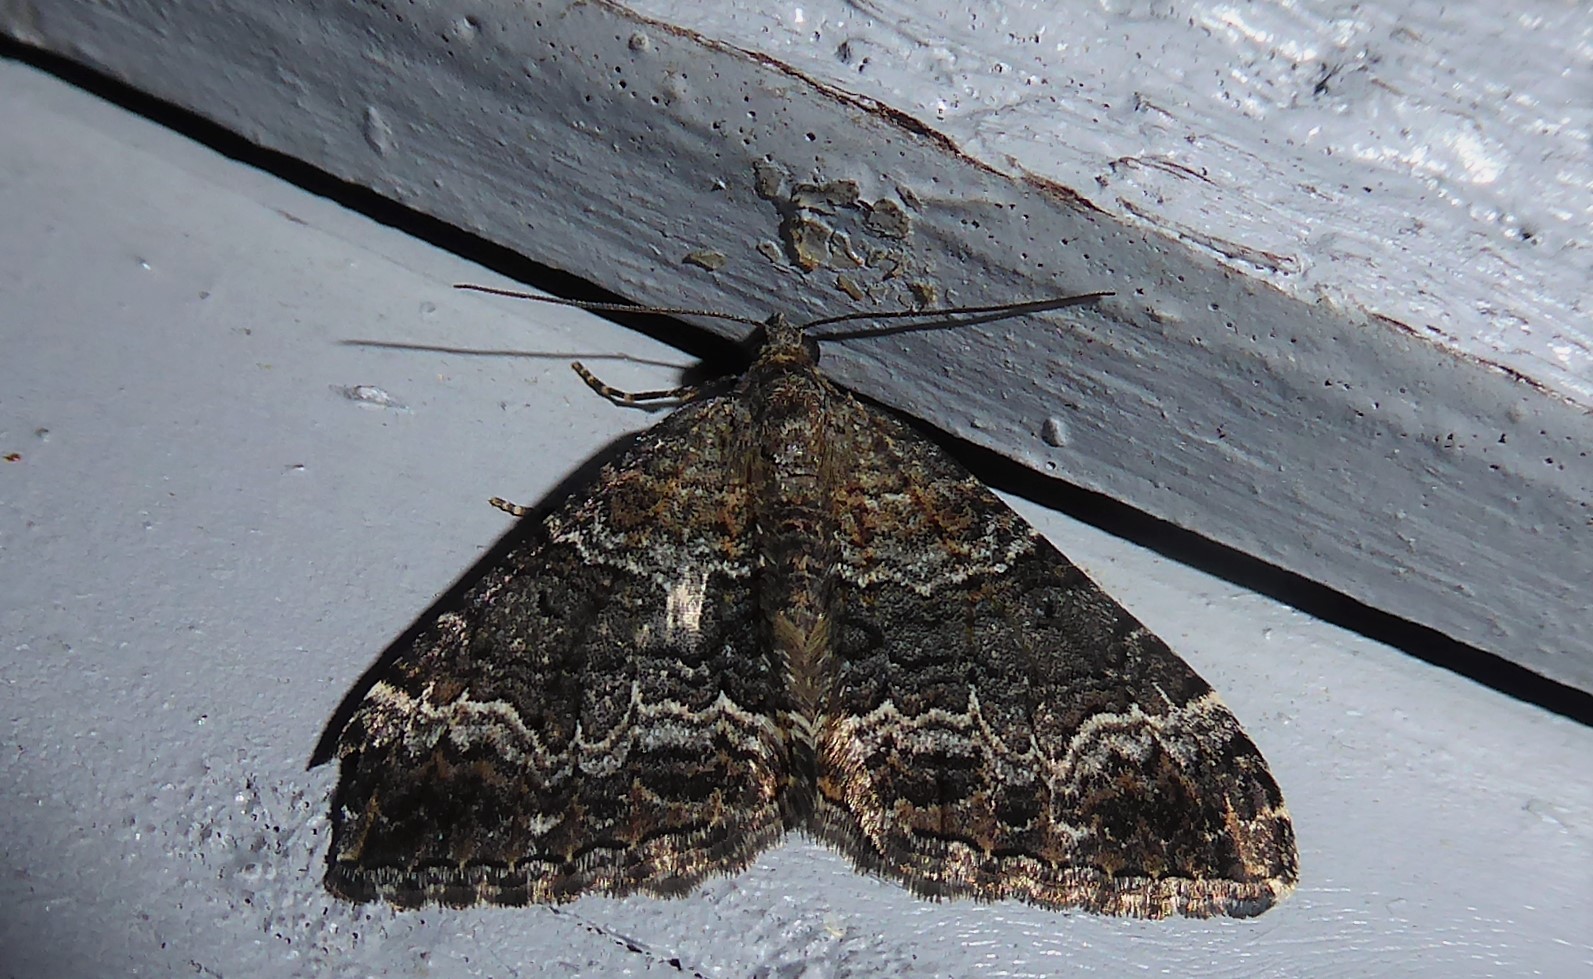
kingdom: Animalia
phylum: Arthropoda
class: Insecta
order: Lepidoptera
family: Geometridae
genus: Hydriomena
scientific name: Hydriomena deltoidata
